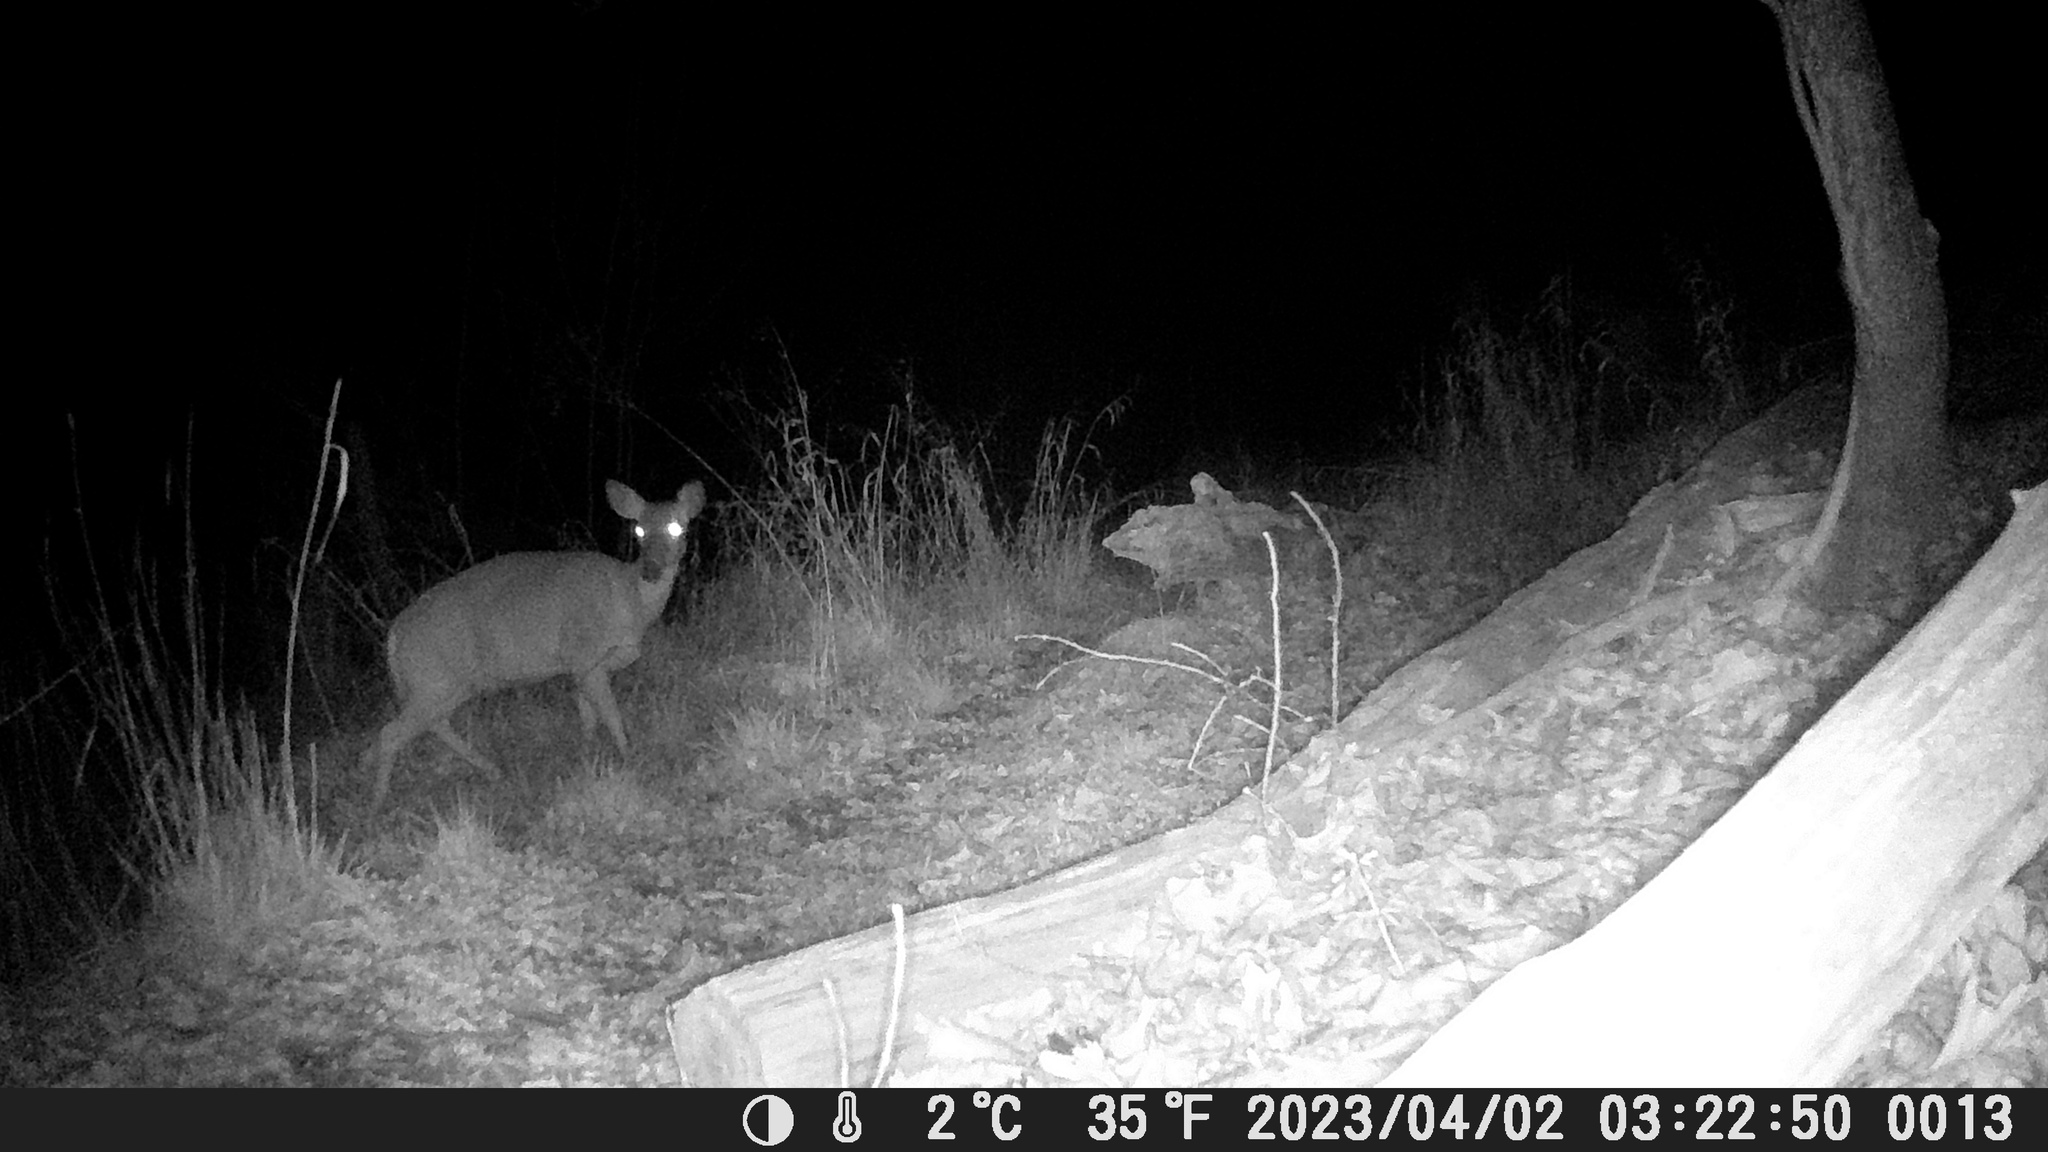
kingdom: Animalia
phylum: Chordata
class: Mammalia
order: Artiodactyla
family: Cervidae
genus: Odocoileus
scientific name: Odocoileus virginianus
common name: White-tailed deer
